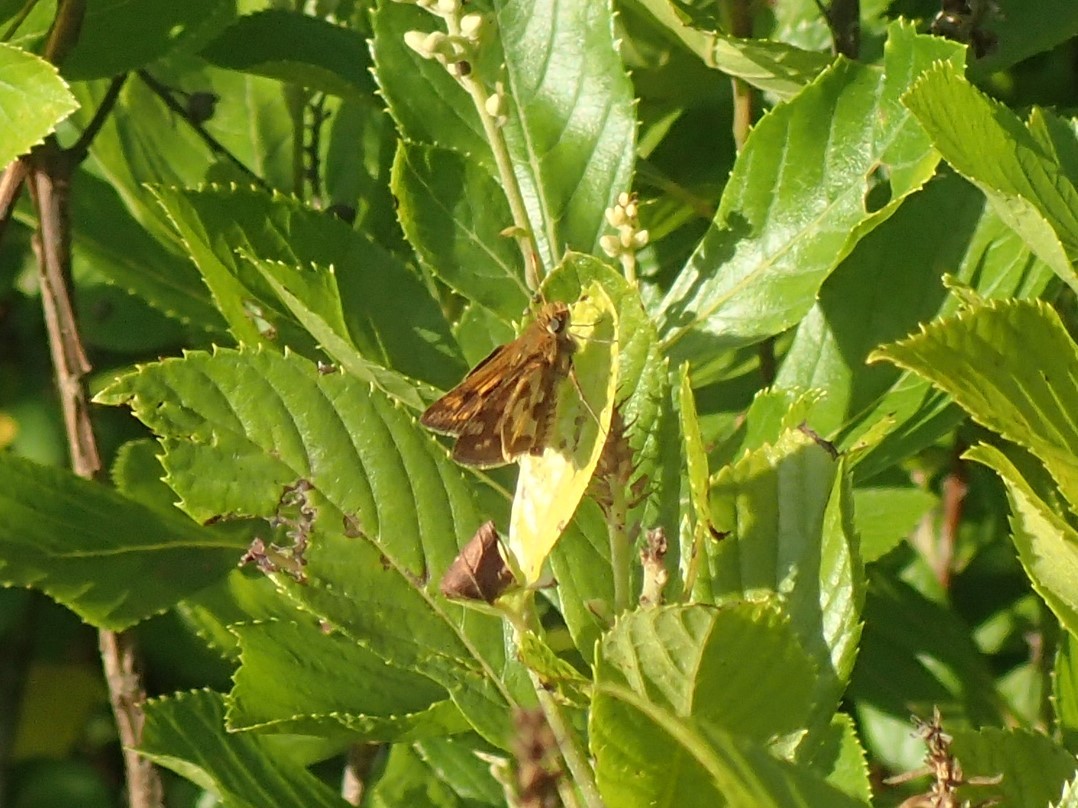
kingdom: Animalia
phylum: Arthropoda
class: Insecta
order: Lepidoptera
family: Hesperiidae
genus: Polites
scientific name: Polites coras
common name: Peck's skipper
